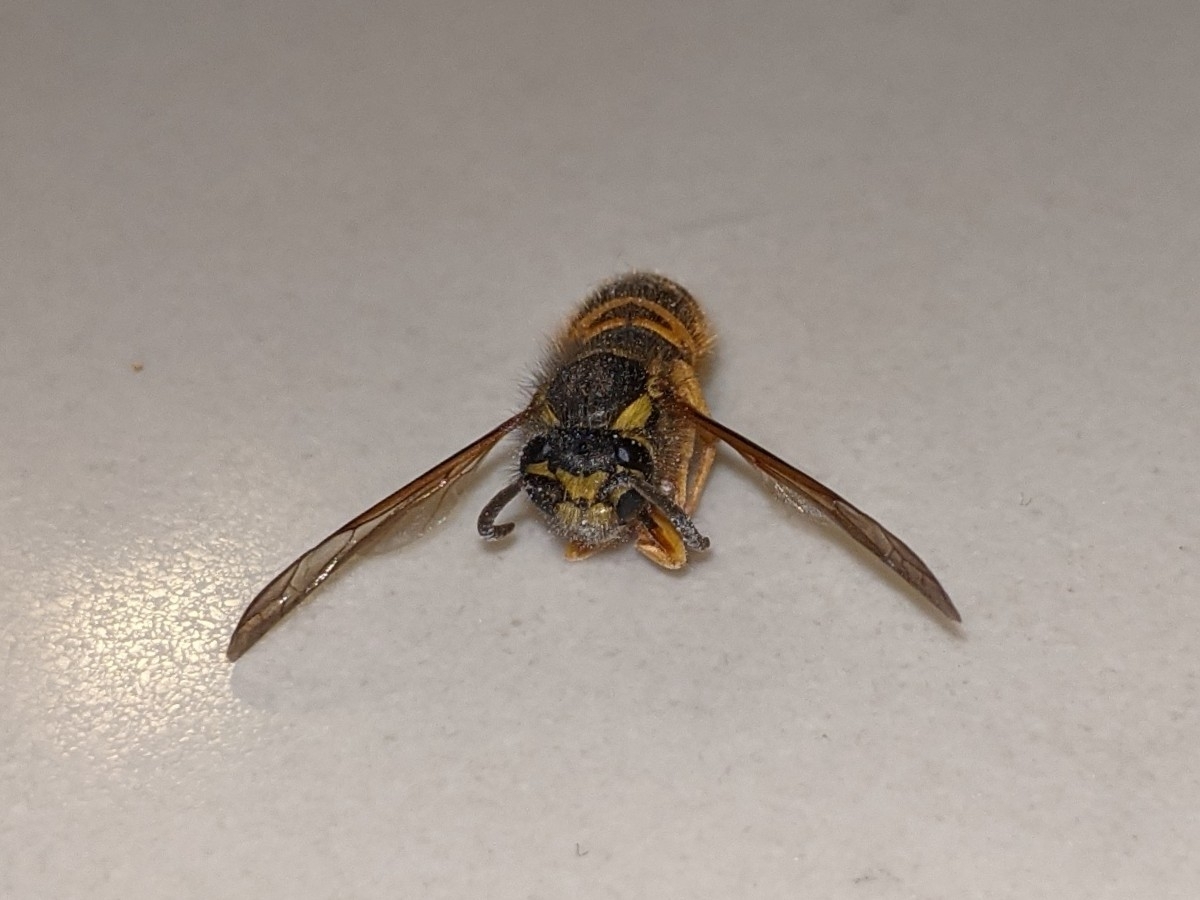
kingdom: Animalia
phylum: Arthropoda
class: Insecta
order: Hymenoptera
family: Vespidae
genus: Vespula
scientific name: Vespula maculifrons
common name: Eastern yellowjacket
